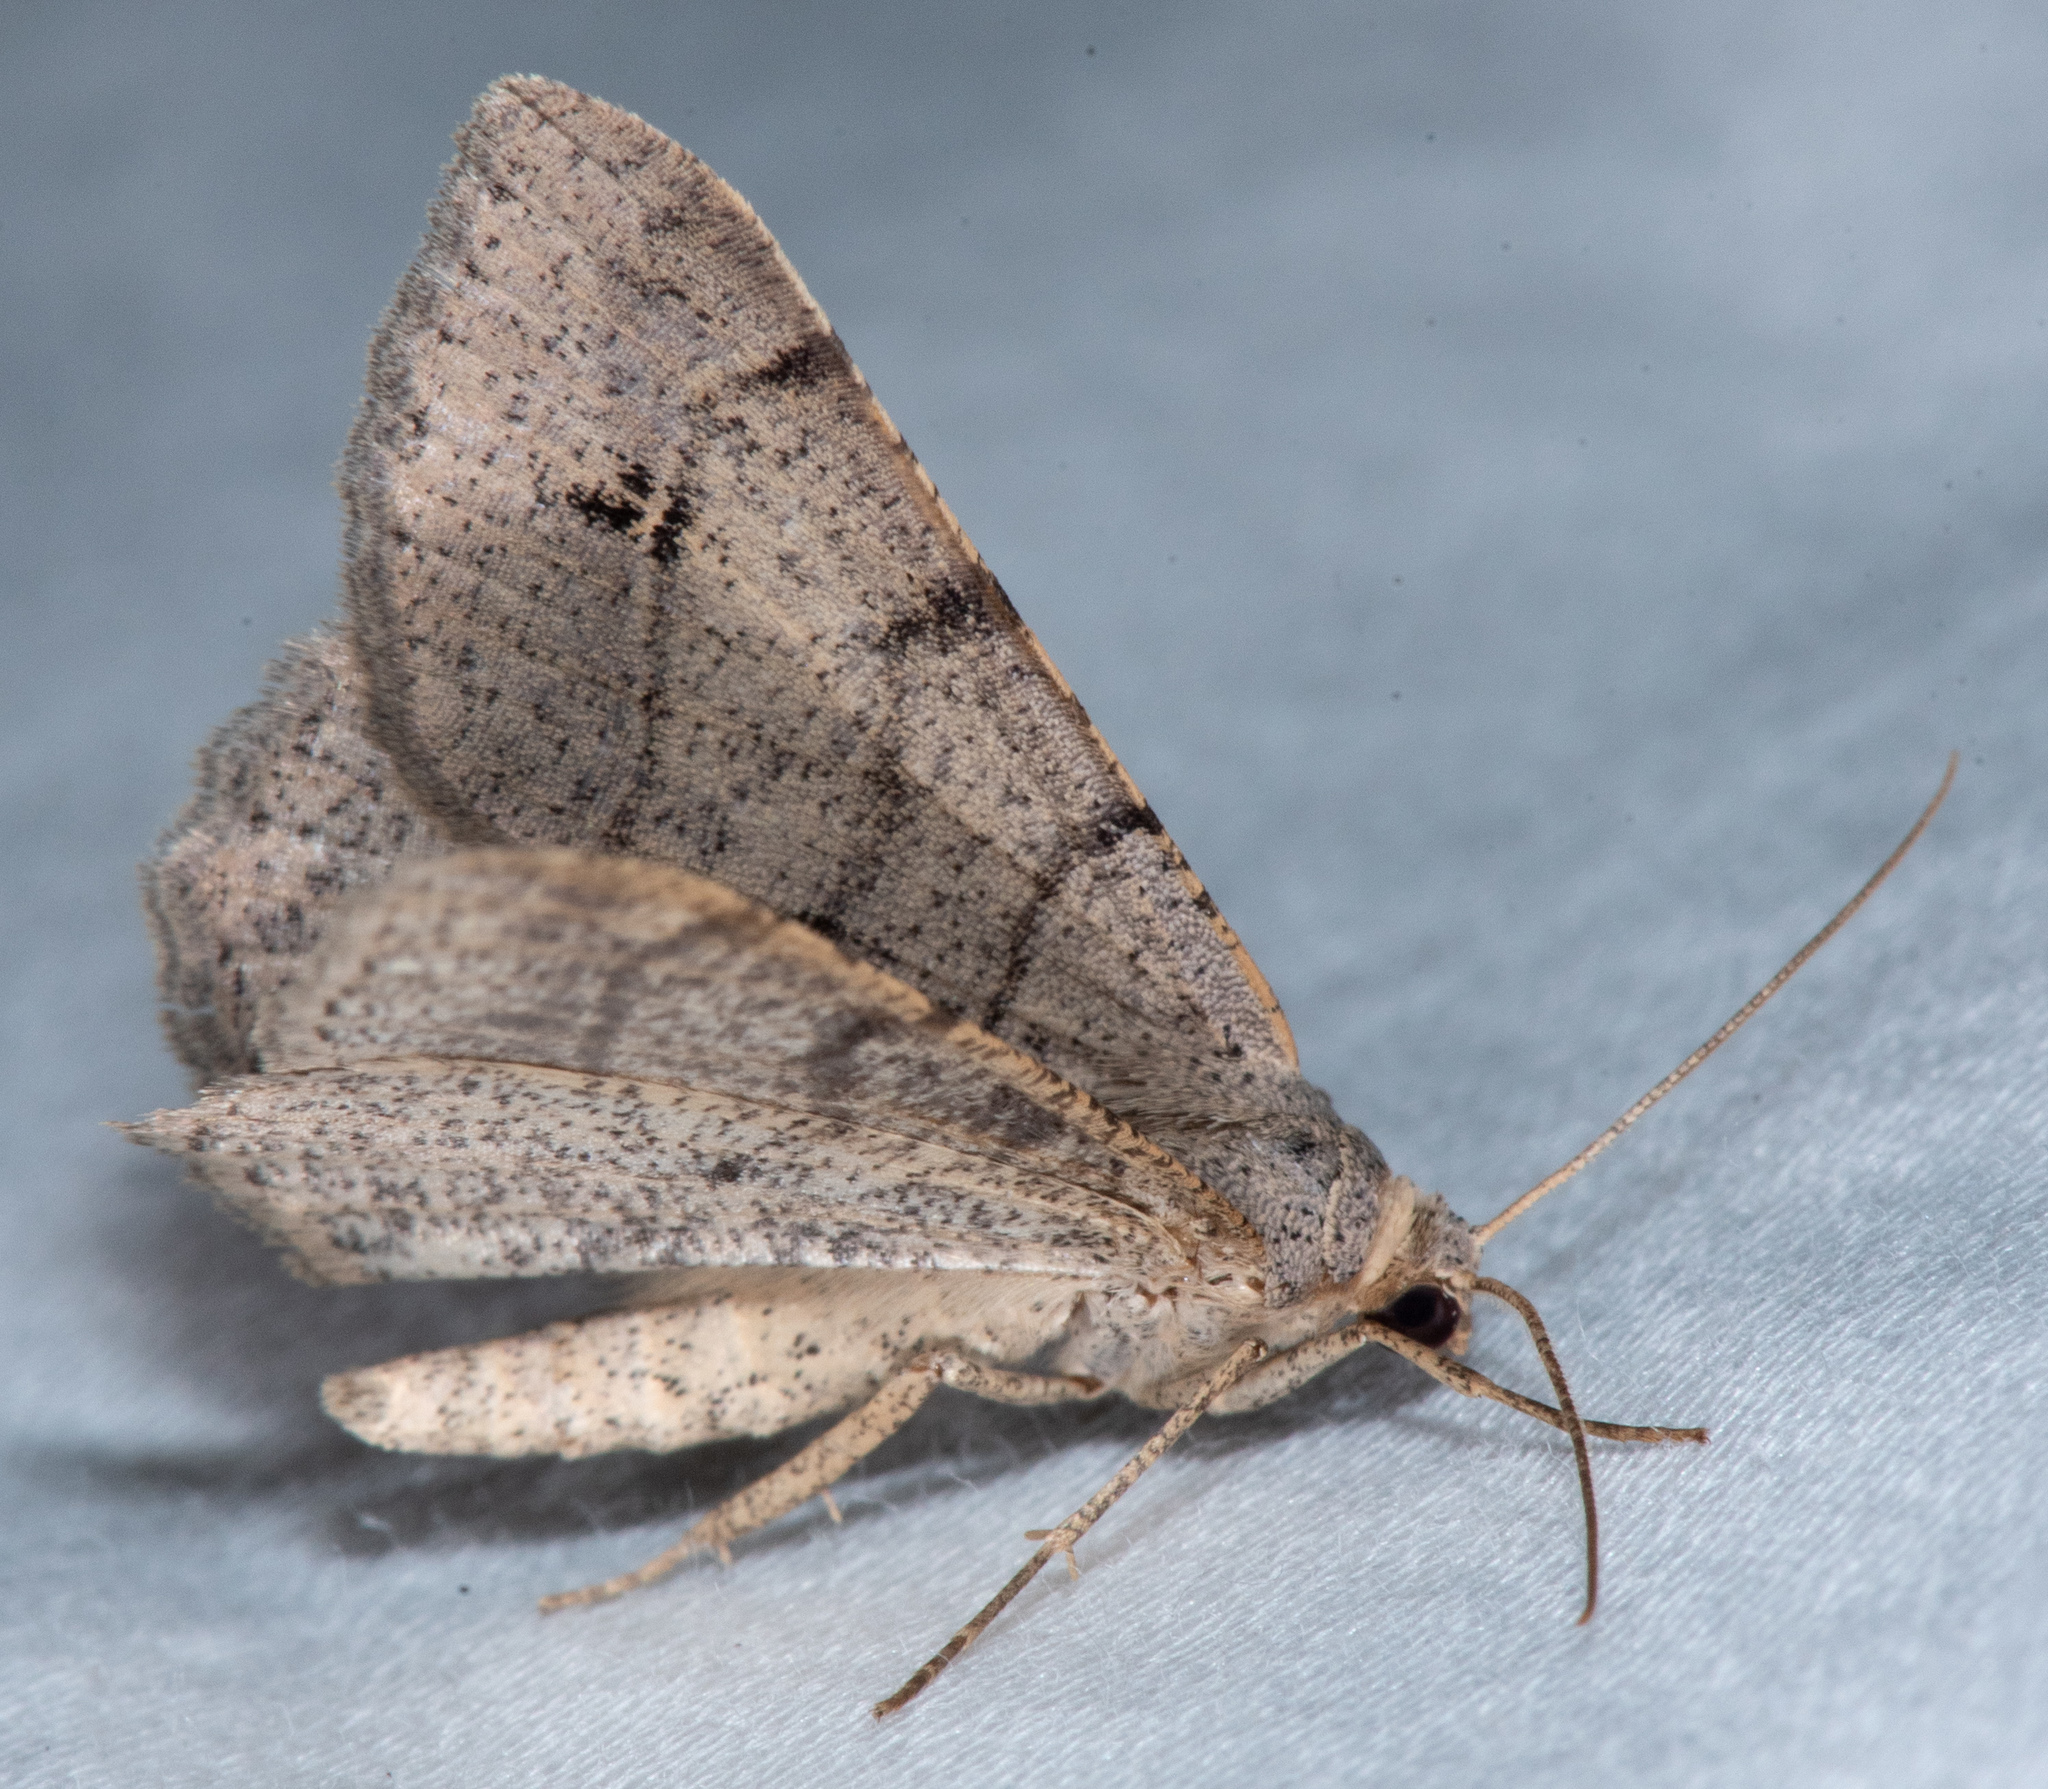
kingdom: Animalia
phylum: Arthropoda
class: Insecta
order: Lepidoptera
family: Geometridae
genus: Digrammia
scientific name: Digrammia muscariata
